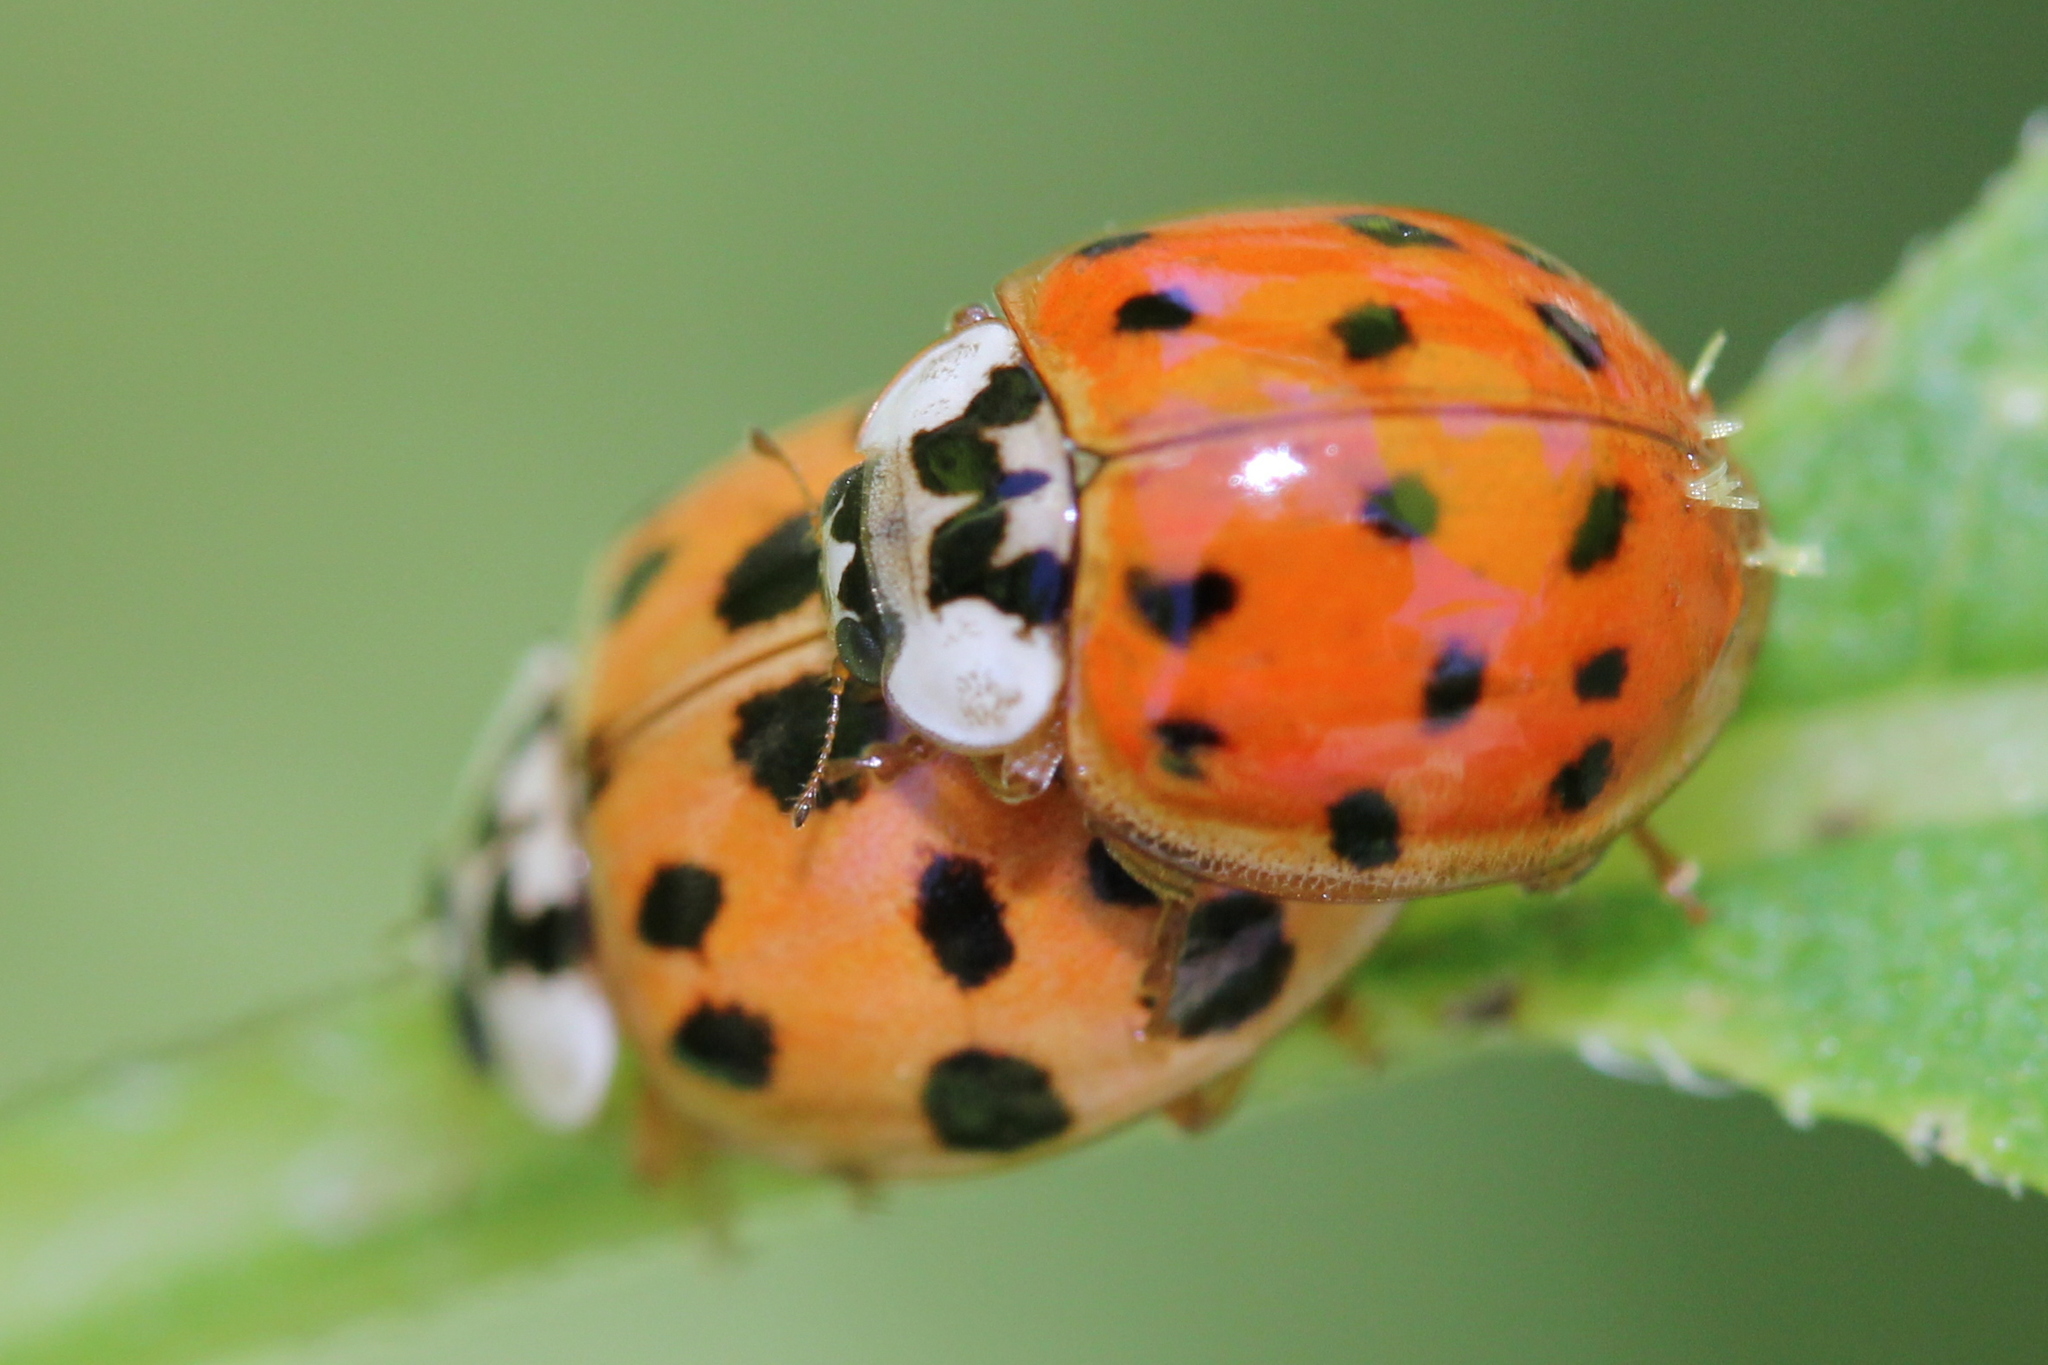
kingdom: Fungi
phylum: Ascomycota
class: Laboulbeniomycetes
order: Laboulbeniales
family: Laboulbeniaceae
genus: Hesperomyces
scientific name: Hesperomyces harmoniae
